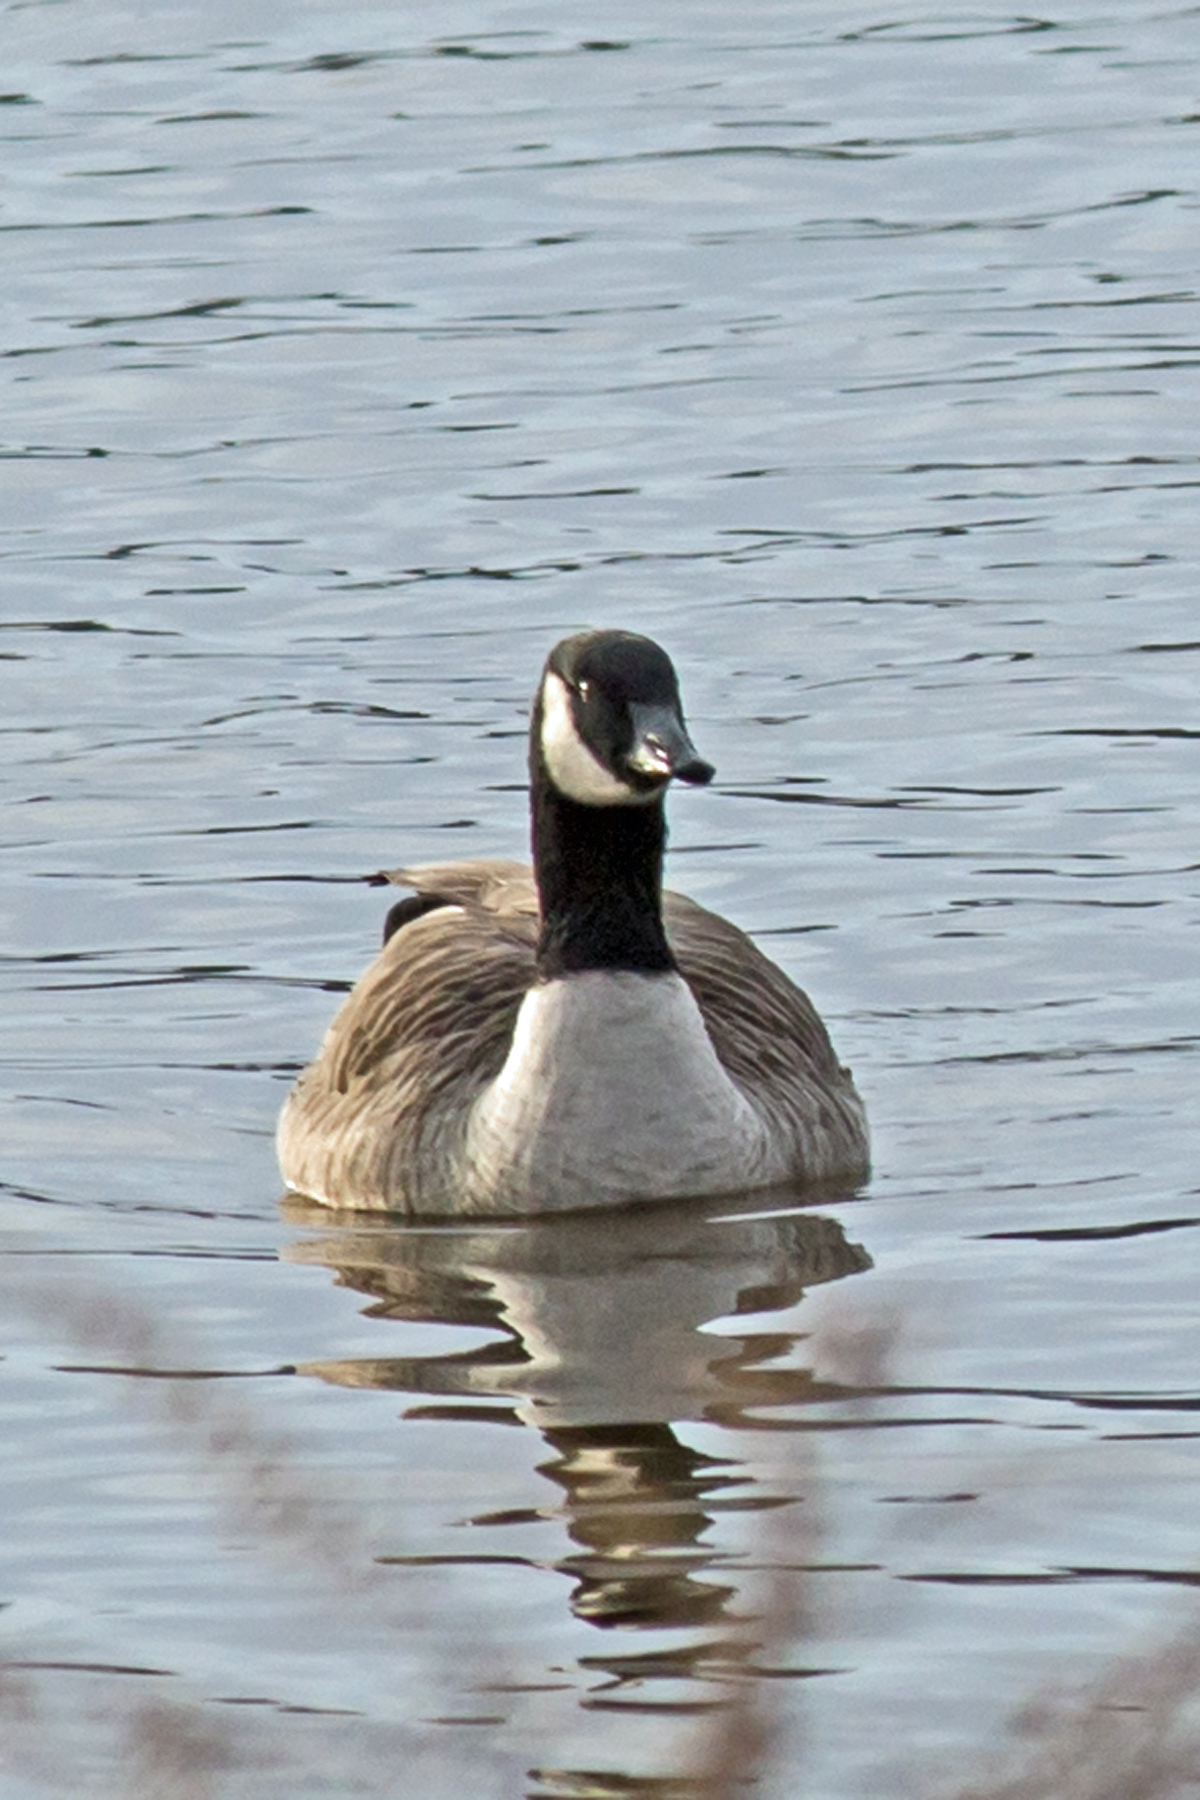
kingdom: Animalia
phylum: Chordata
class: Aves
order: Anseriformes
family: Anatidae
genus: Branta
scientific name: Branta canadensis
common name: Canada goose
